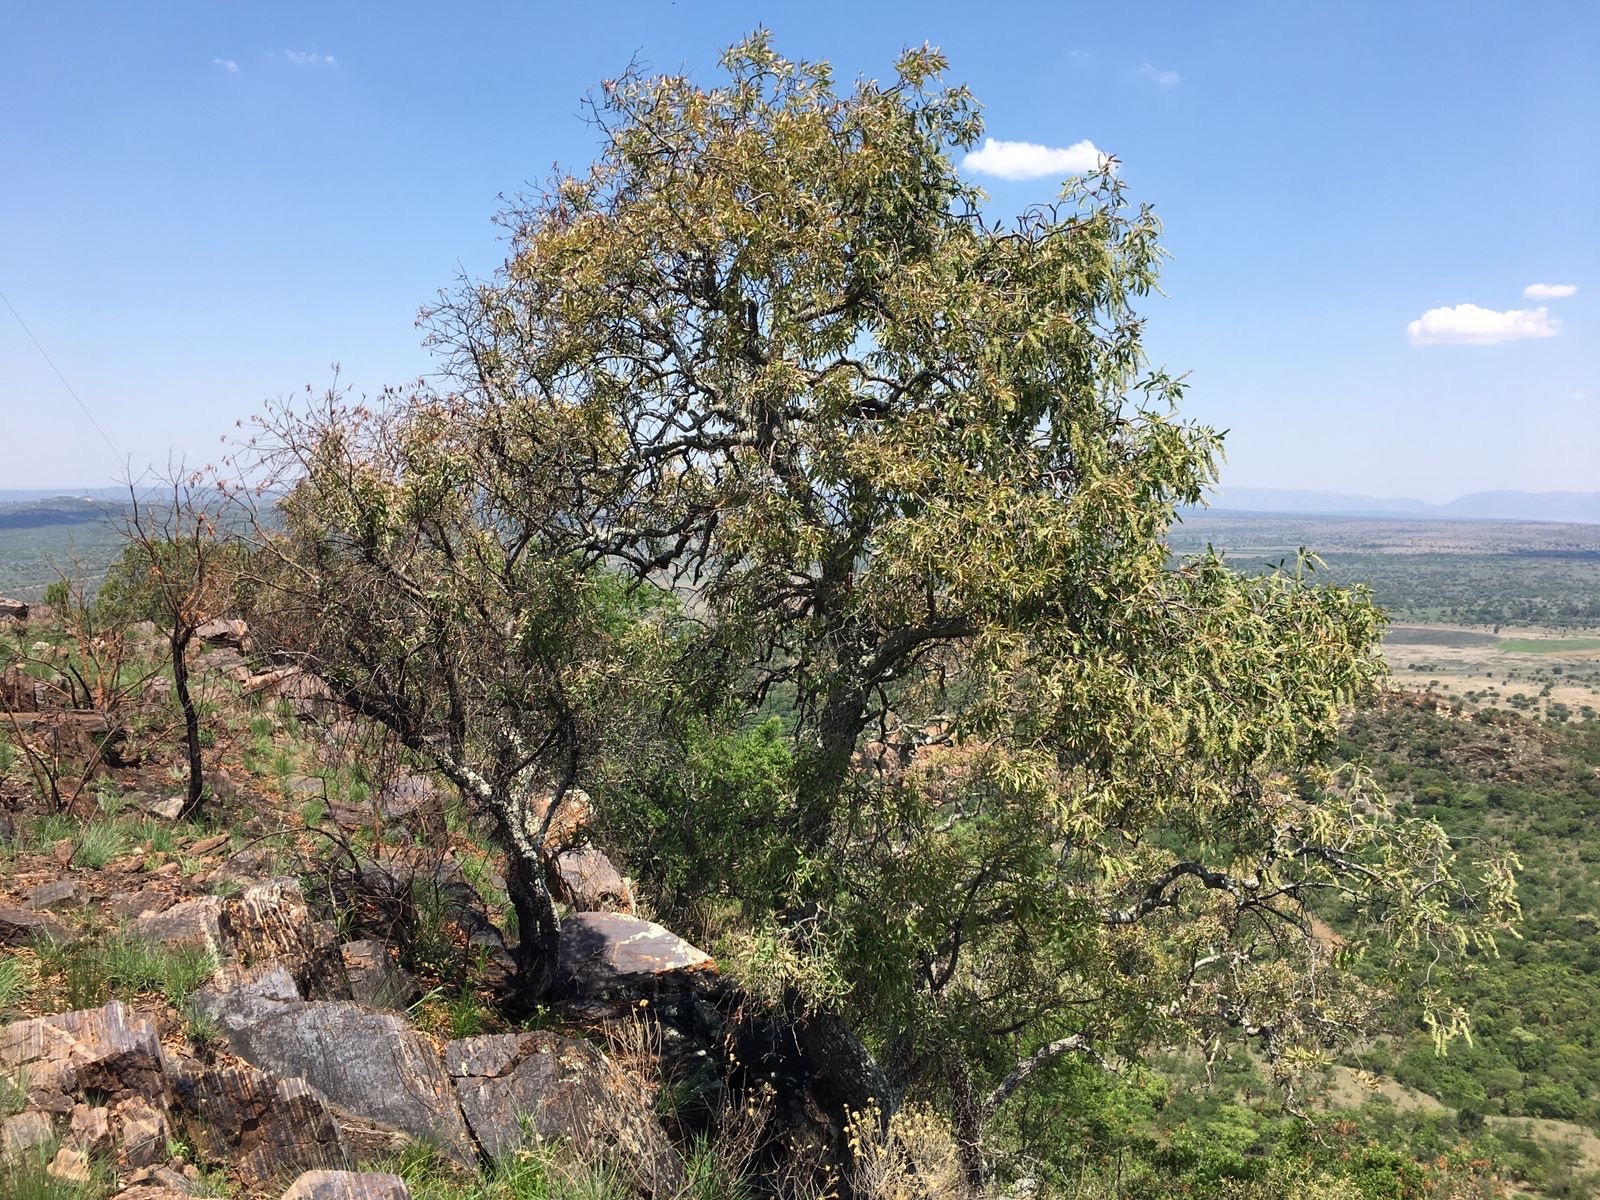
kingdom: Plantae
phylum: Tracheophyta
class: Magnoliopsida
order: Proteales
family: Proteaceae
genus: Faurea
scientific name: Faurea saligna
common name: African bean
